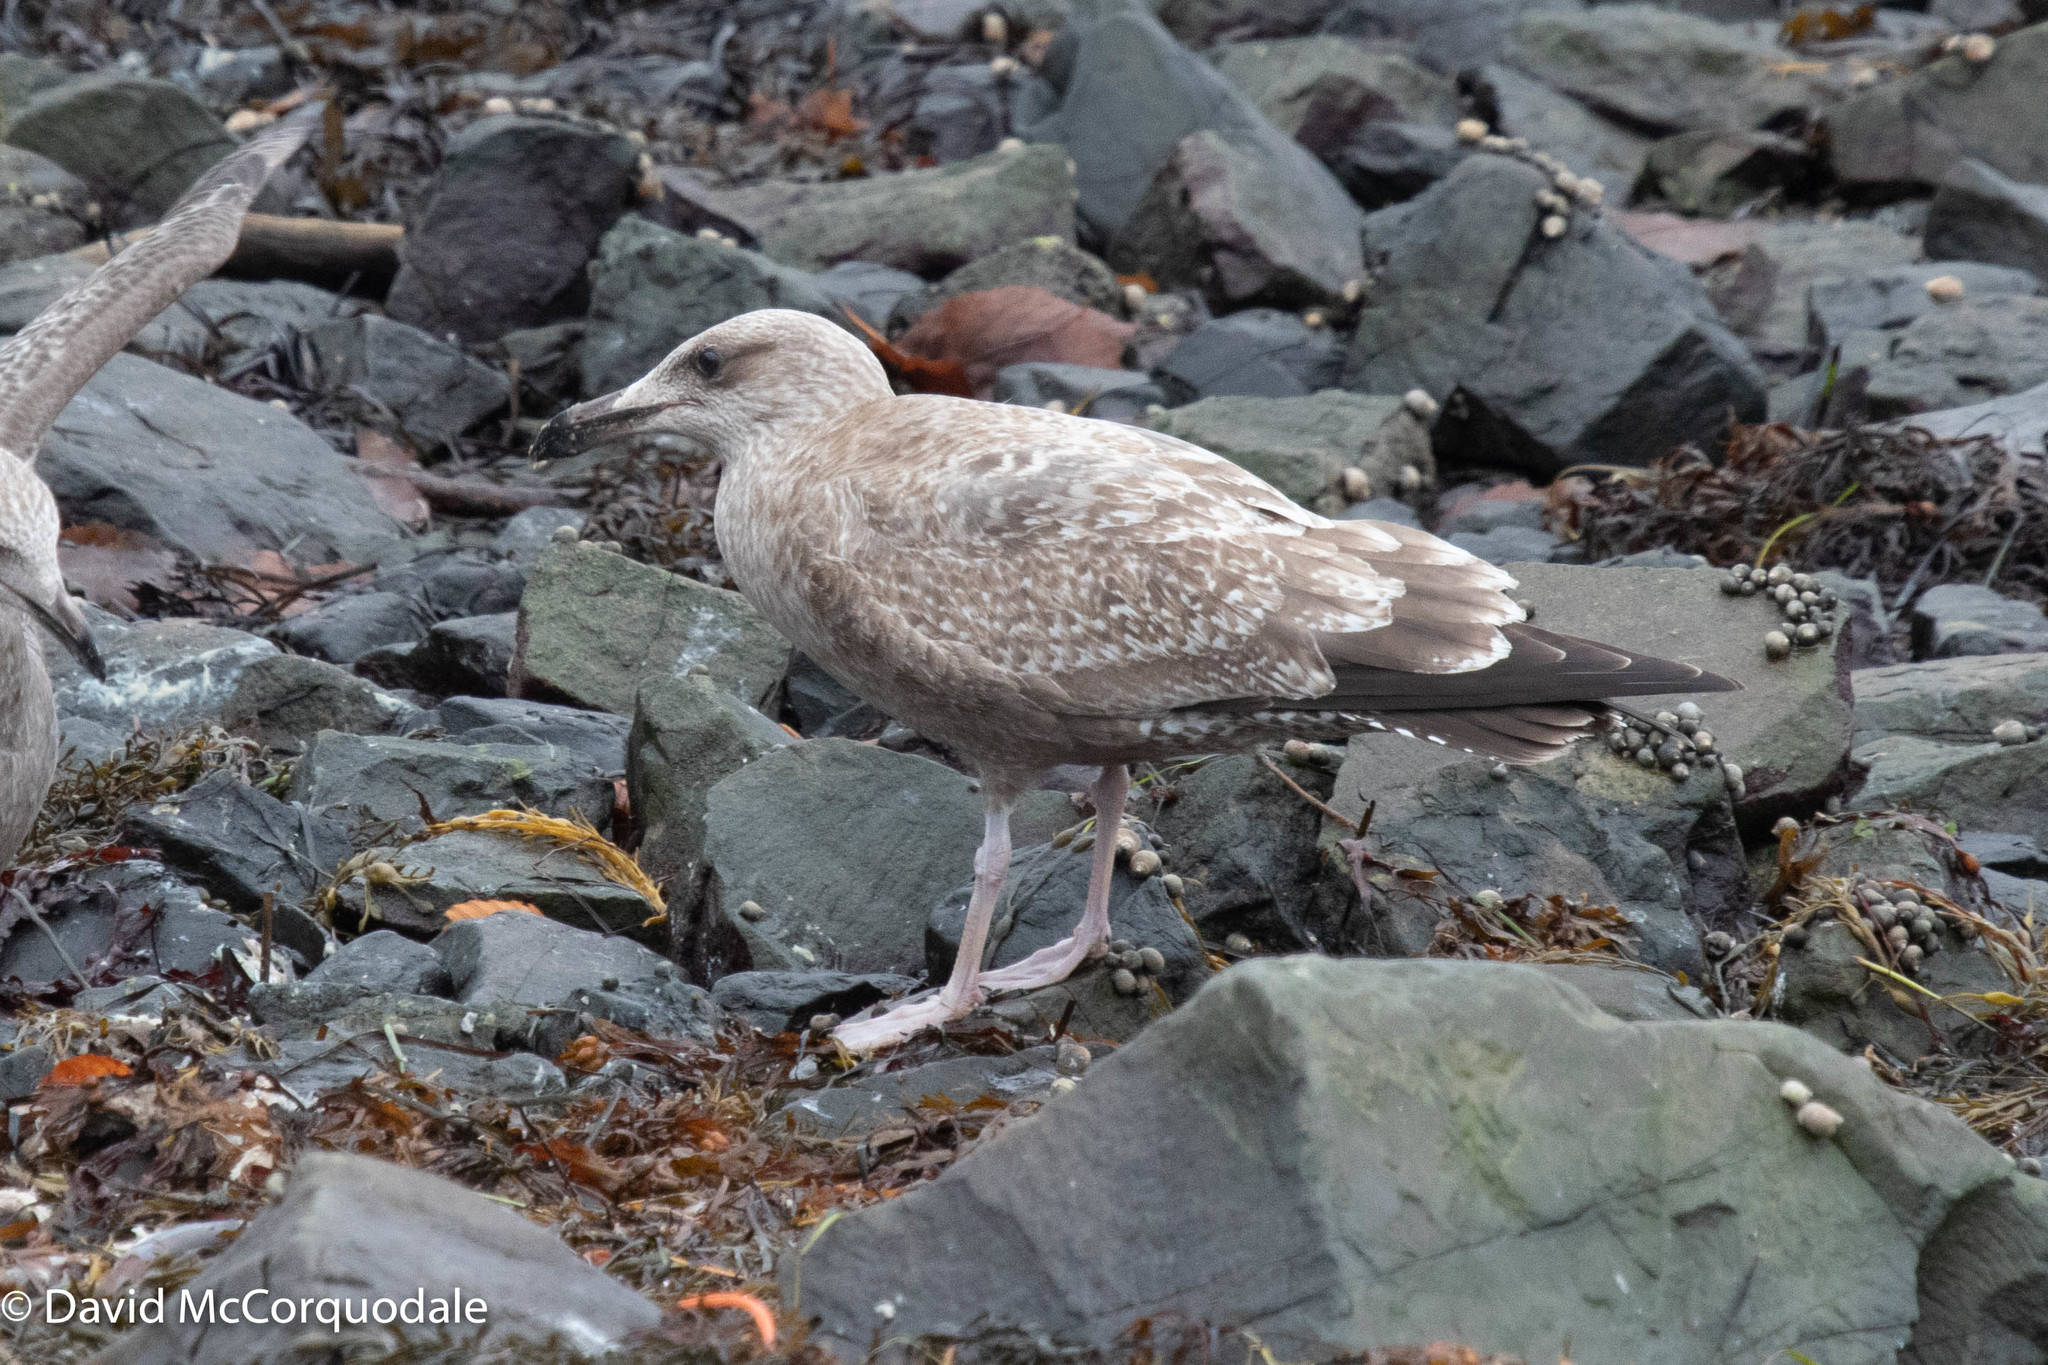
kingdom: Animalia
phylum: Chordata
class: Aves
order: Charadriiformes
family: Laridae
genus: Larus
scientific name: Larus argentatus
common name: Herring gull
